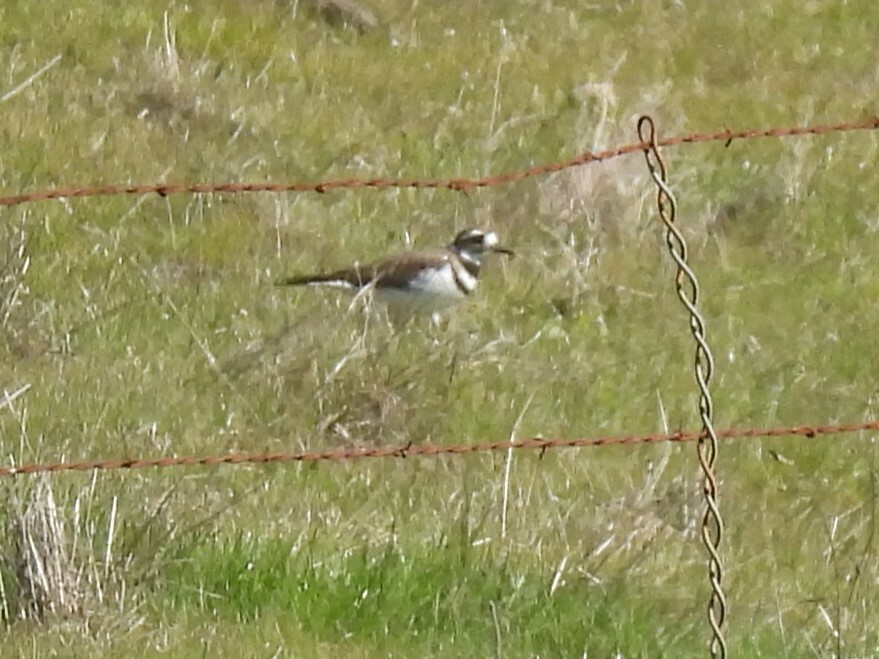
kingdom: Animalia
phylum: Chordata
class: Aves
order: Charadriiformes
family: Charadriidae
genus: Charadrius
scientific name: Charadrius vociferus
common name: Killdeer
